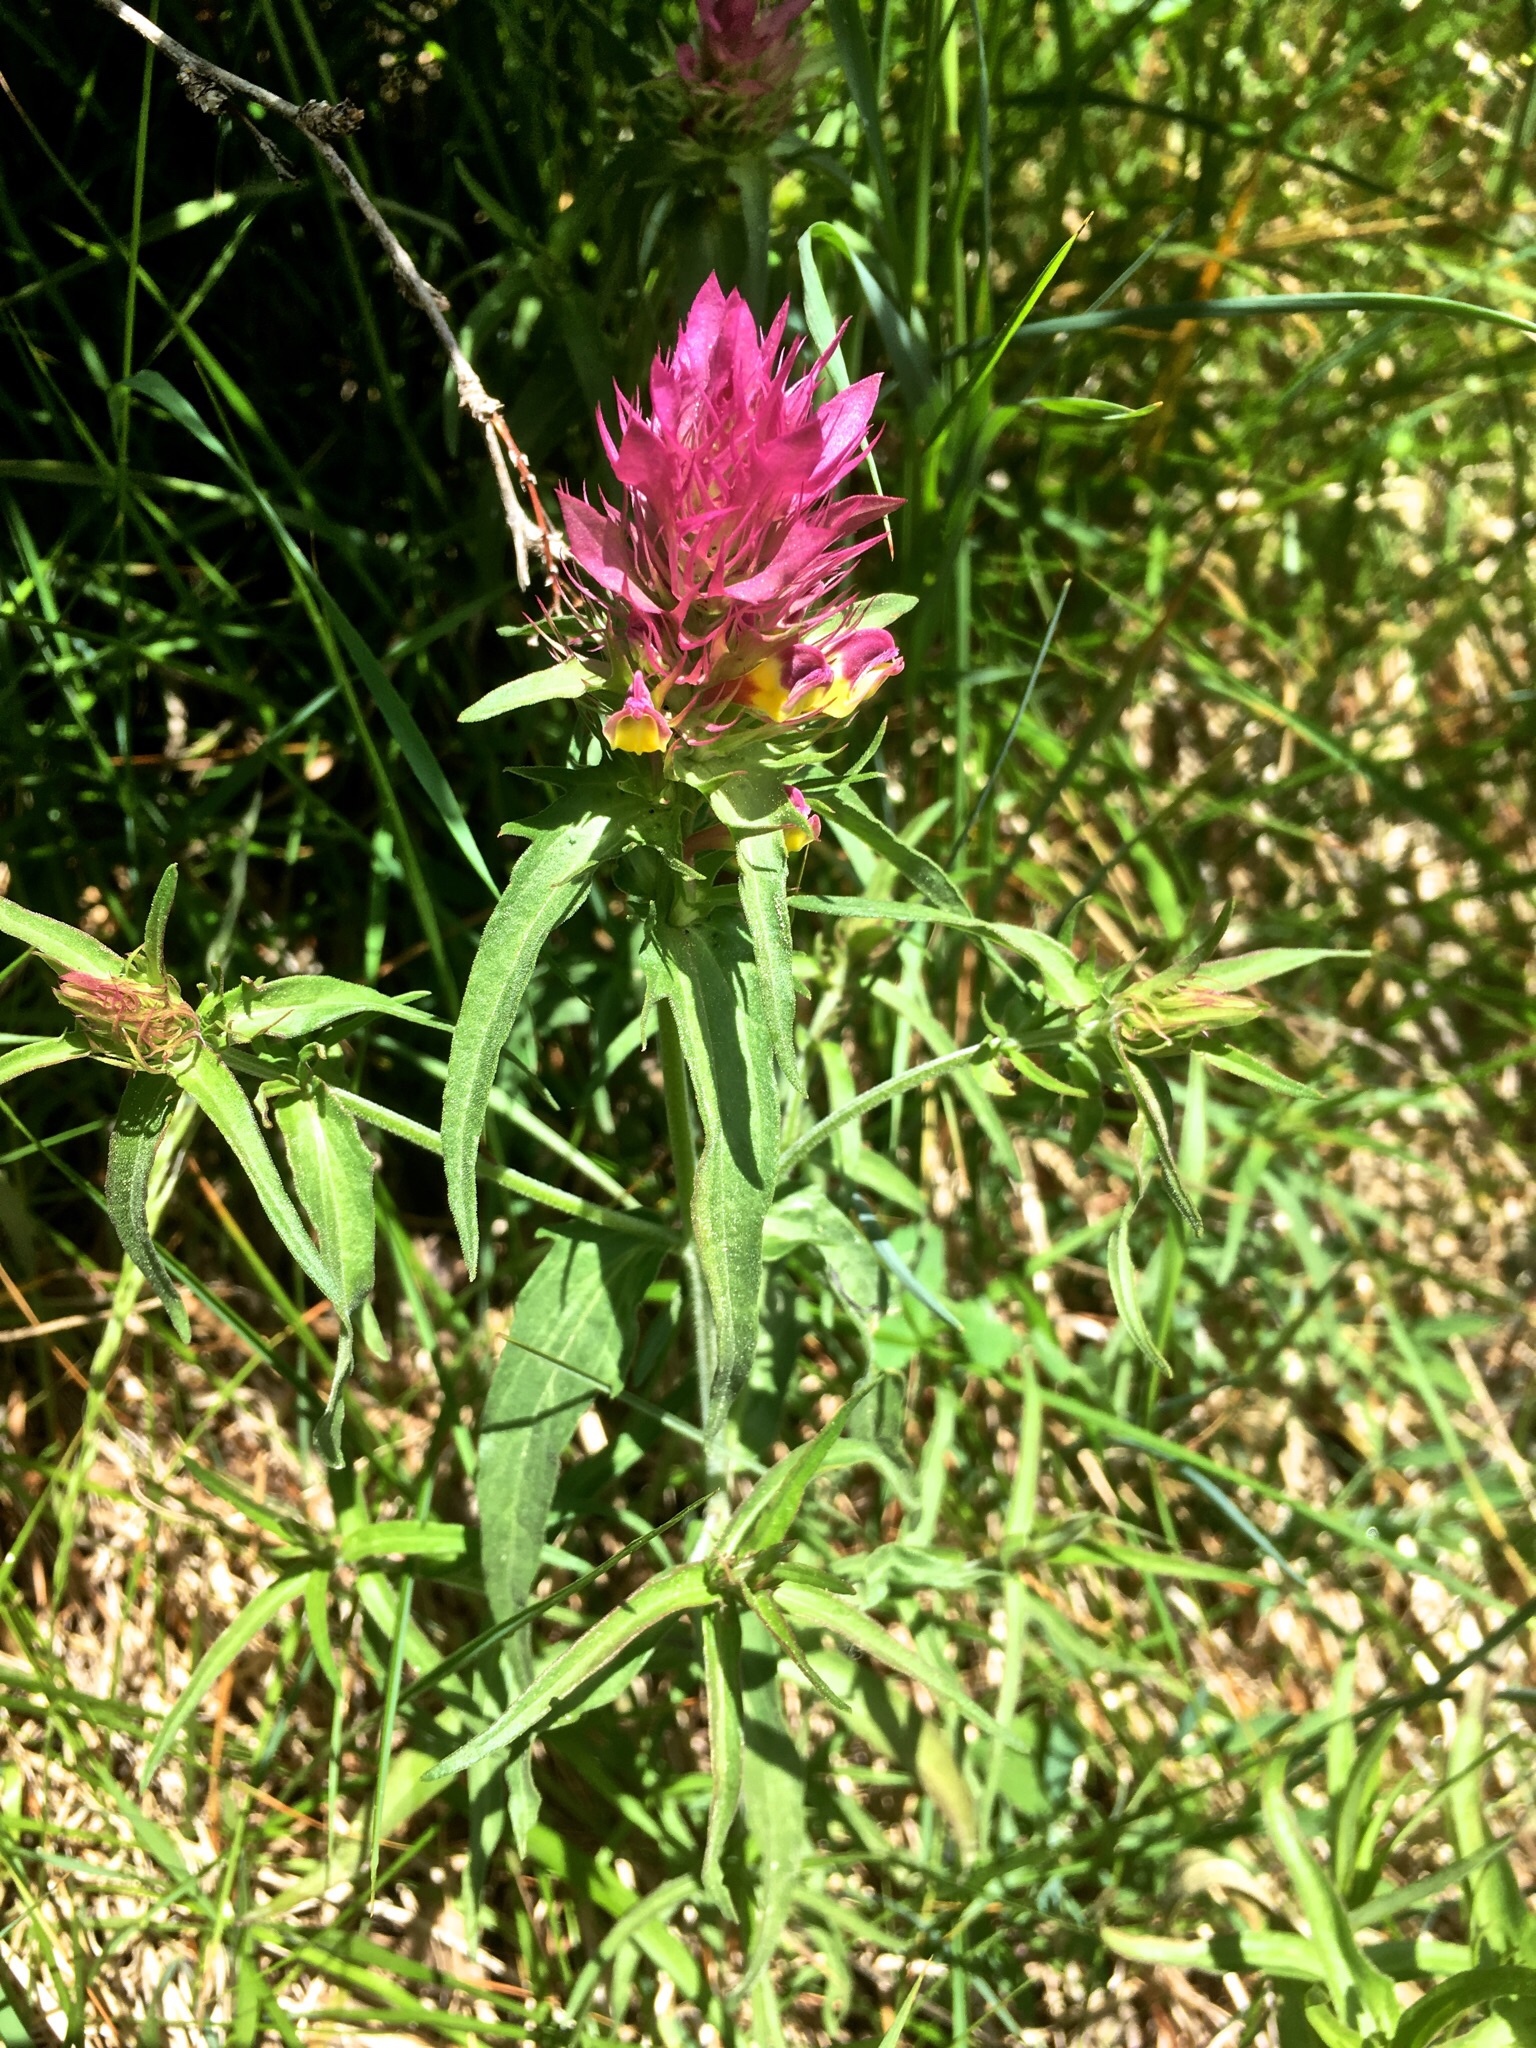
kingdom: Plantae
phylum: Tracheophyta
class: Magnoliopsida
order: Lamiales
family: Orobanchaceae
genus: Melampyrum
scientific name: Melampyrum arvense
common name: Field cow-wheat
